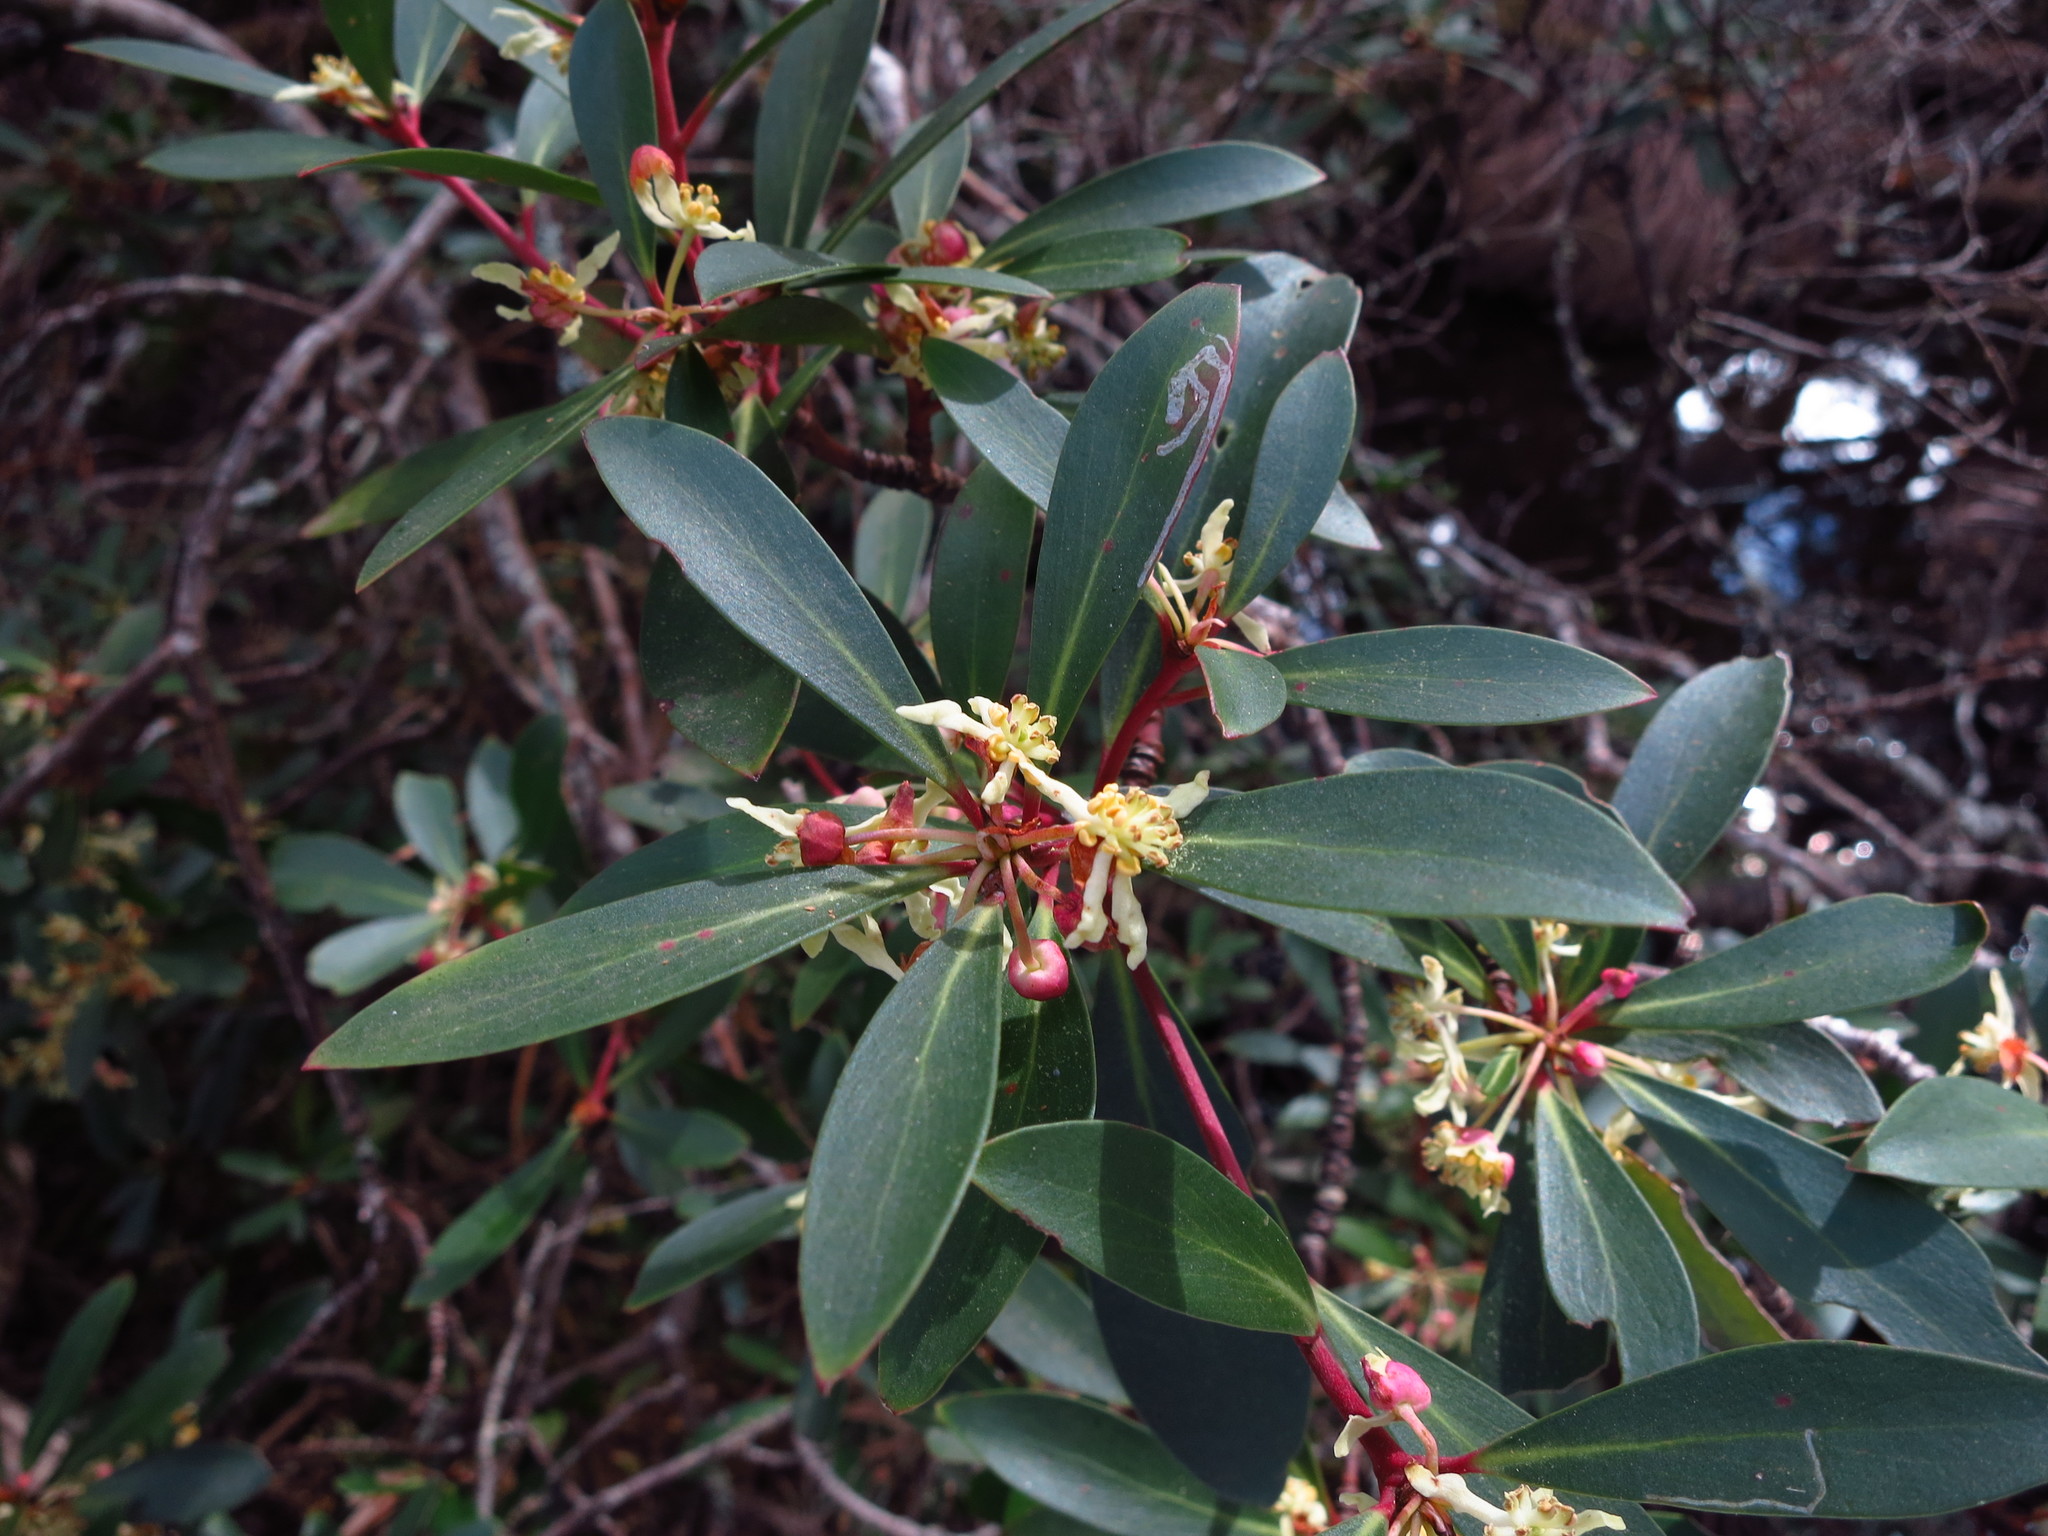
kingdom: Plantae
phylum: Tracheophyta
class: Magnoliopsida
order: Canellales
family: Winteraceae
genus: Drimys
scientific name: Drimys aromatica
